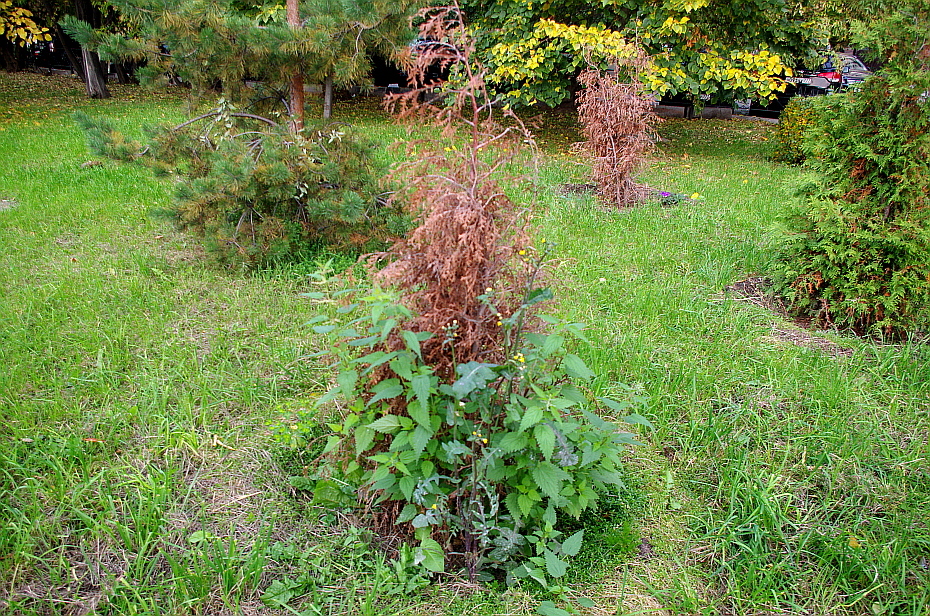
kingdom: Plantae
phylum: Tracheophyta
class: Magnoliopsida
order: Rosales
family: Urticaceae
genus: Urtica
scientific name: Urtica dioica
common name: Common nettle
